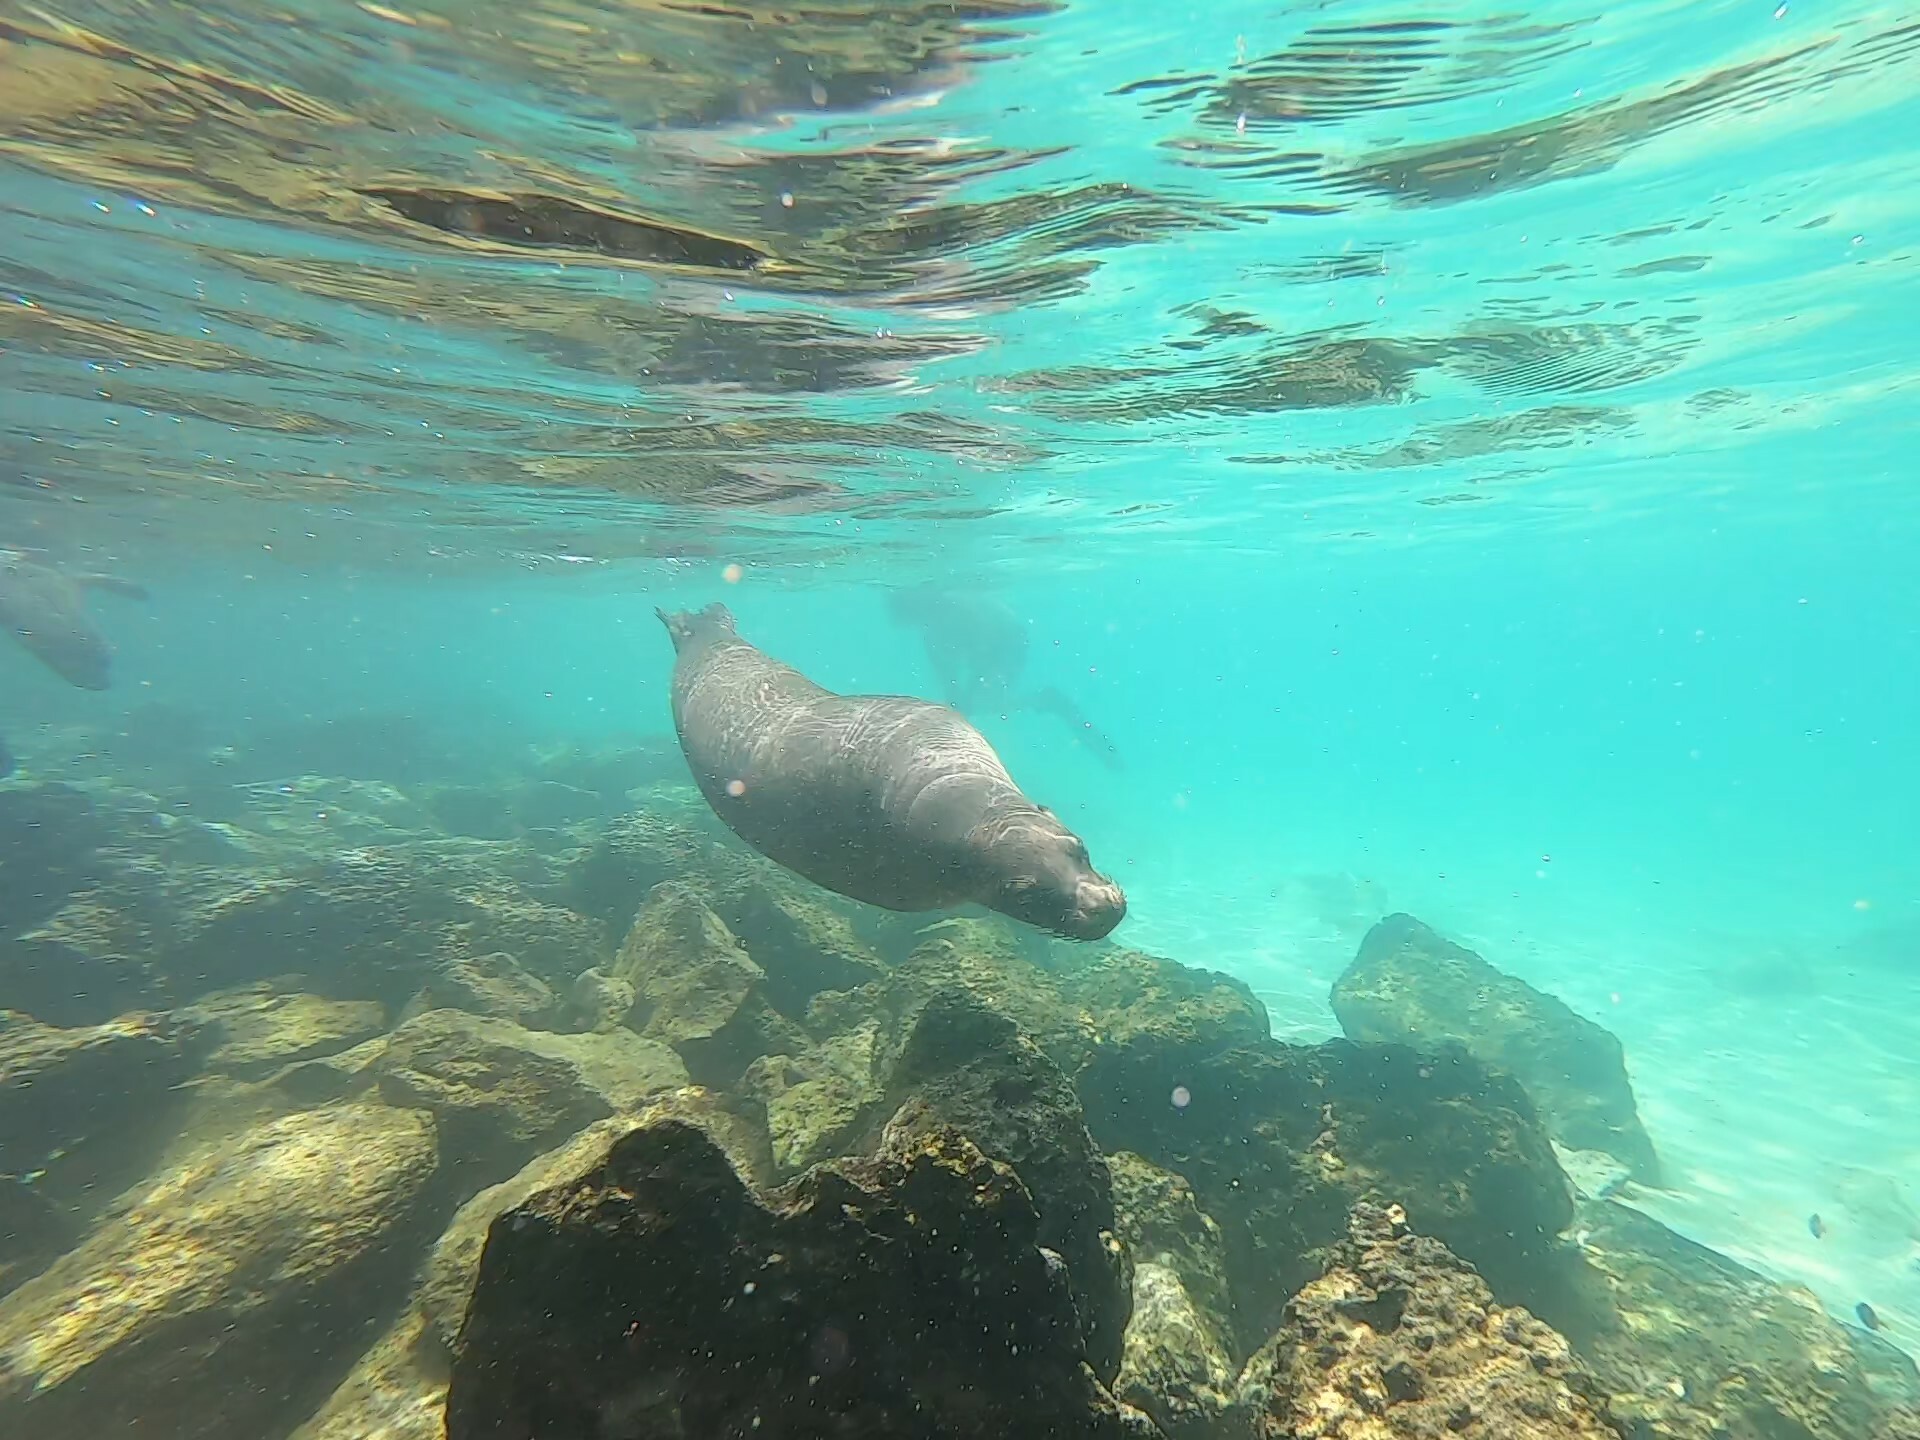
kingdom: Animalia
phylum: Chordata
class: Mammalia
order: Carnivora
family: Otariidae
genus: Zalophus
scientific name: Zalophus wollebaeki
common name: Galapagos sea lion
